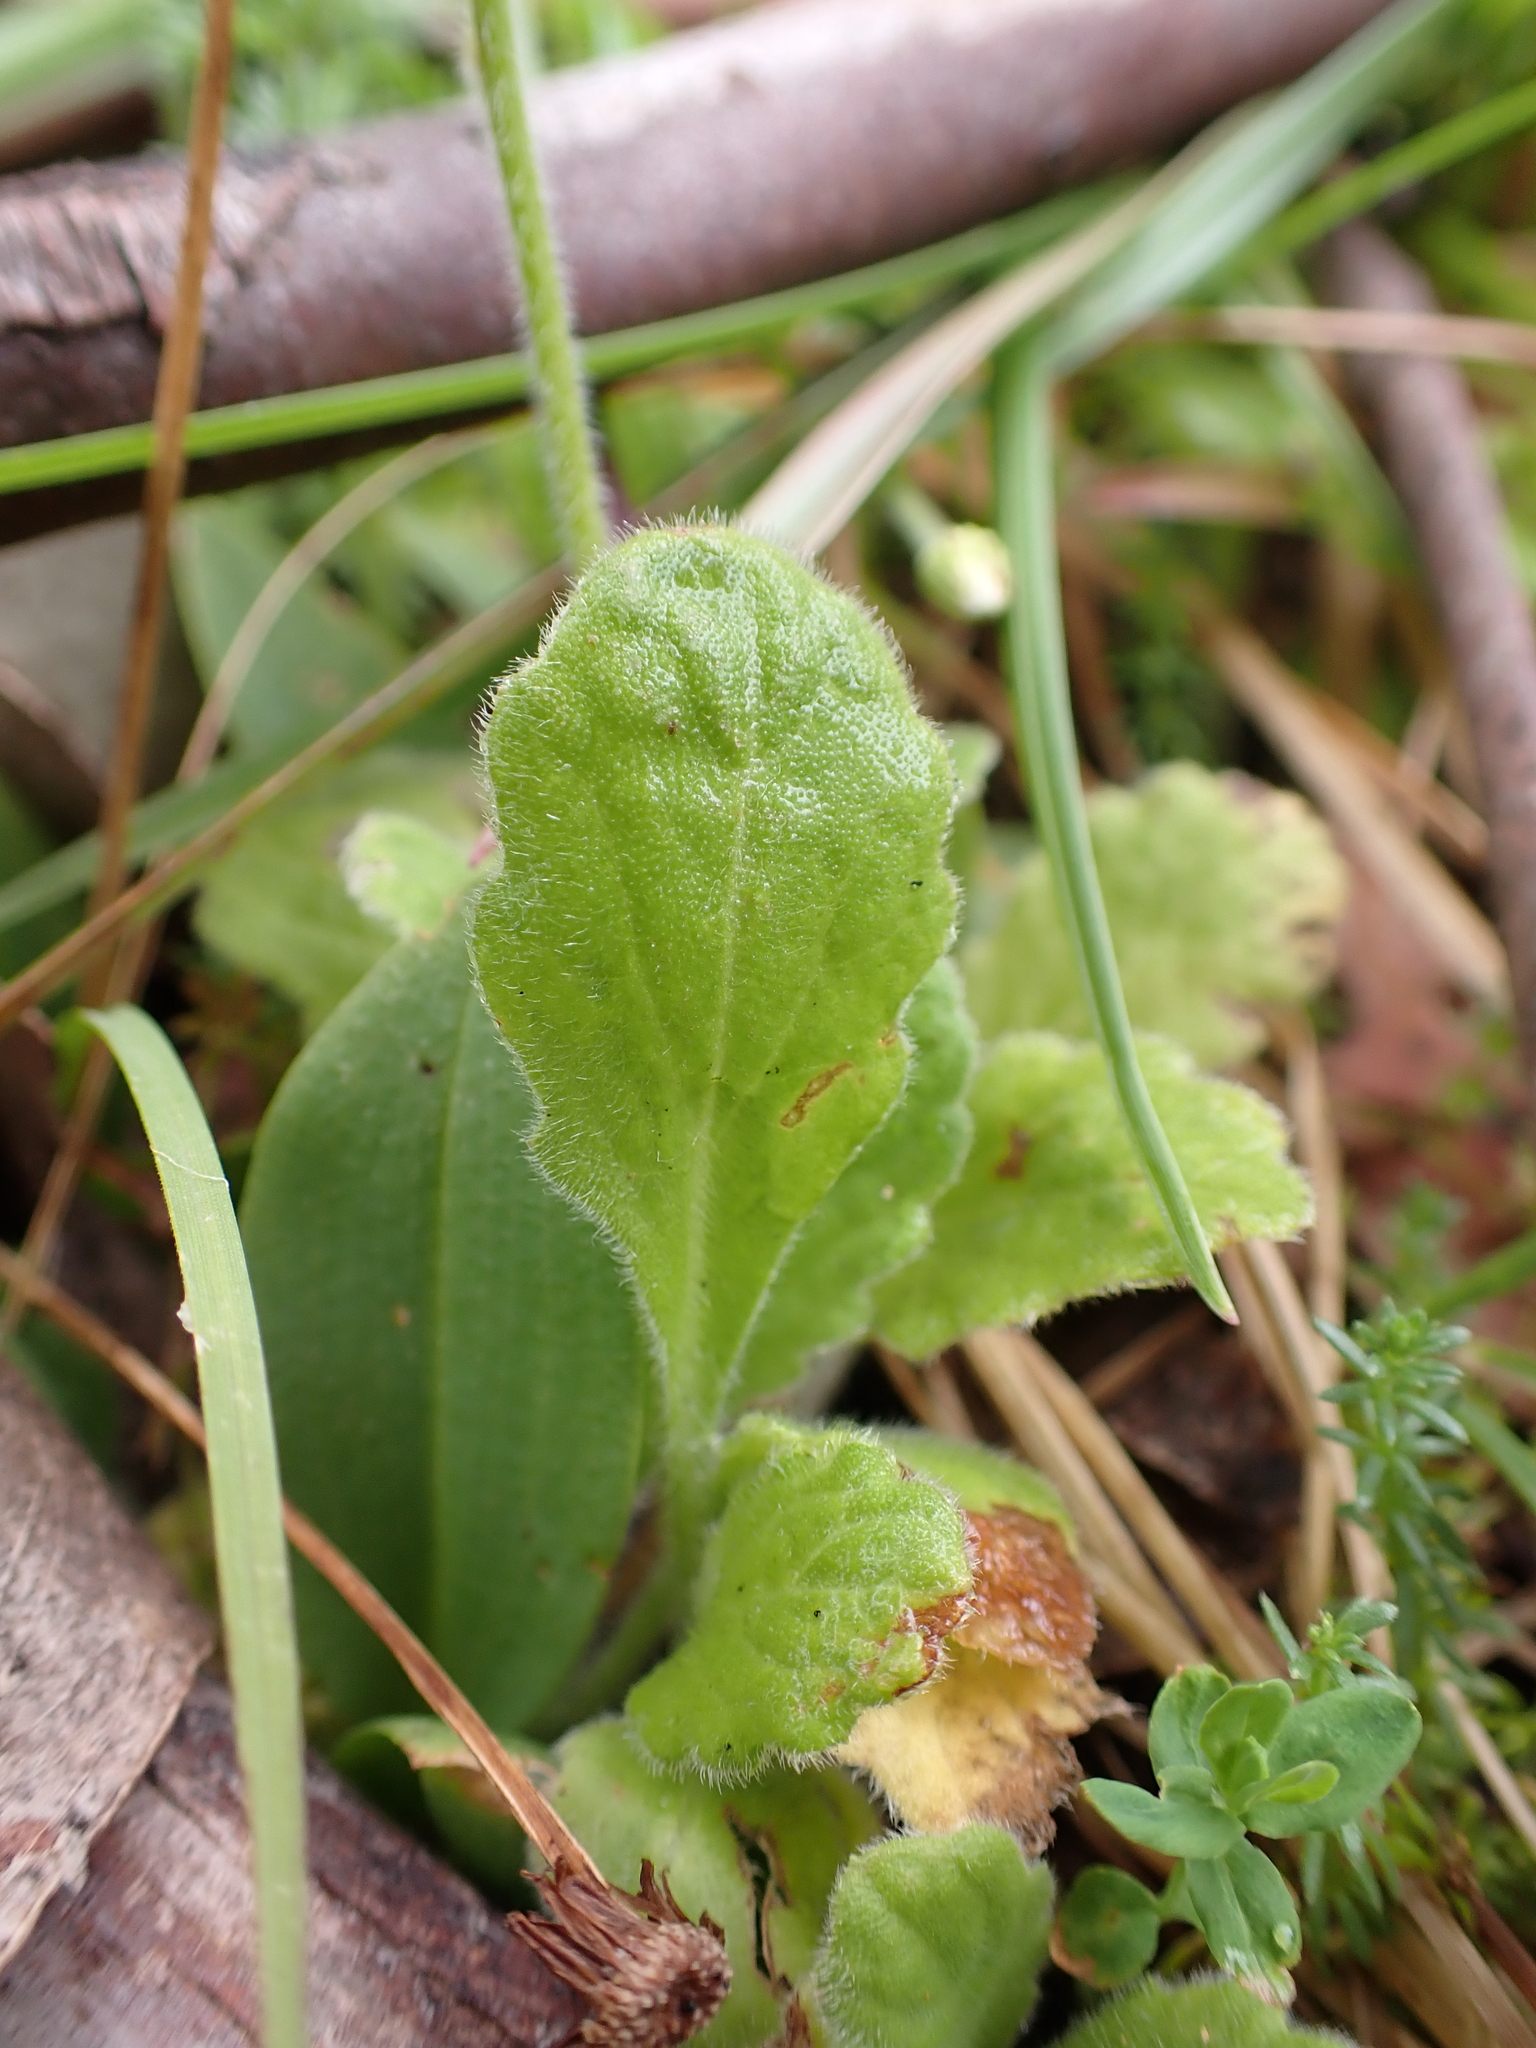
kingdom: Plantae
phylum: Tracheophyta
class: Magnoliopsida
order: Asterales
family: Asteraceae
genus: Lagenophora
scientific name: Lagenophora adenosa
